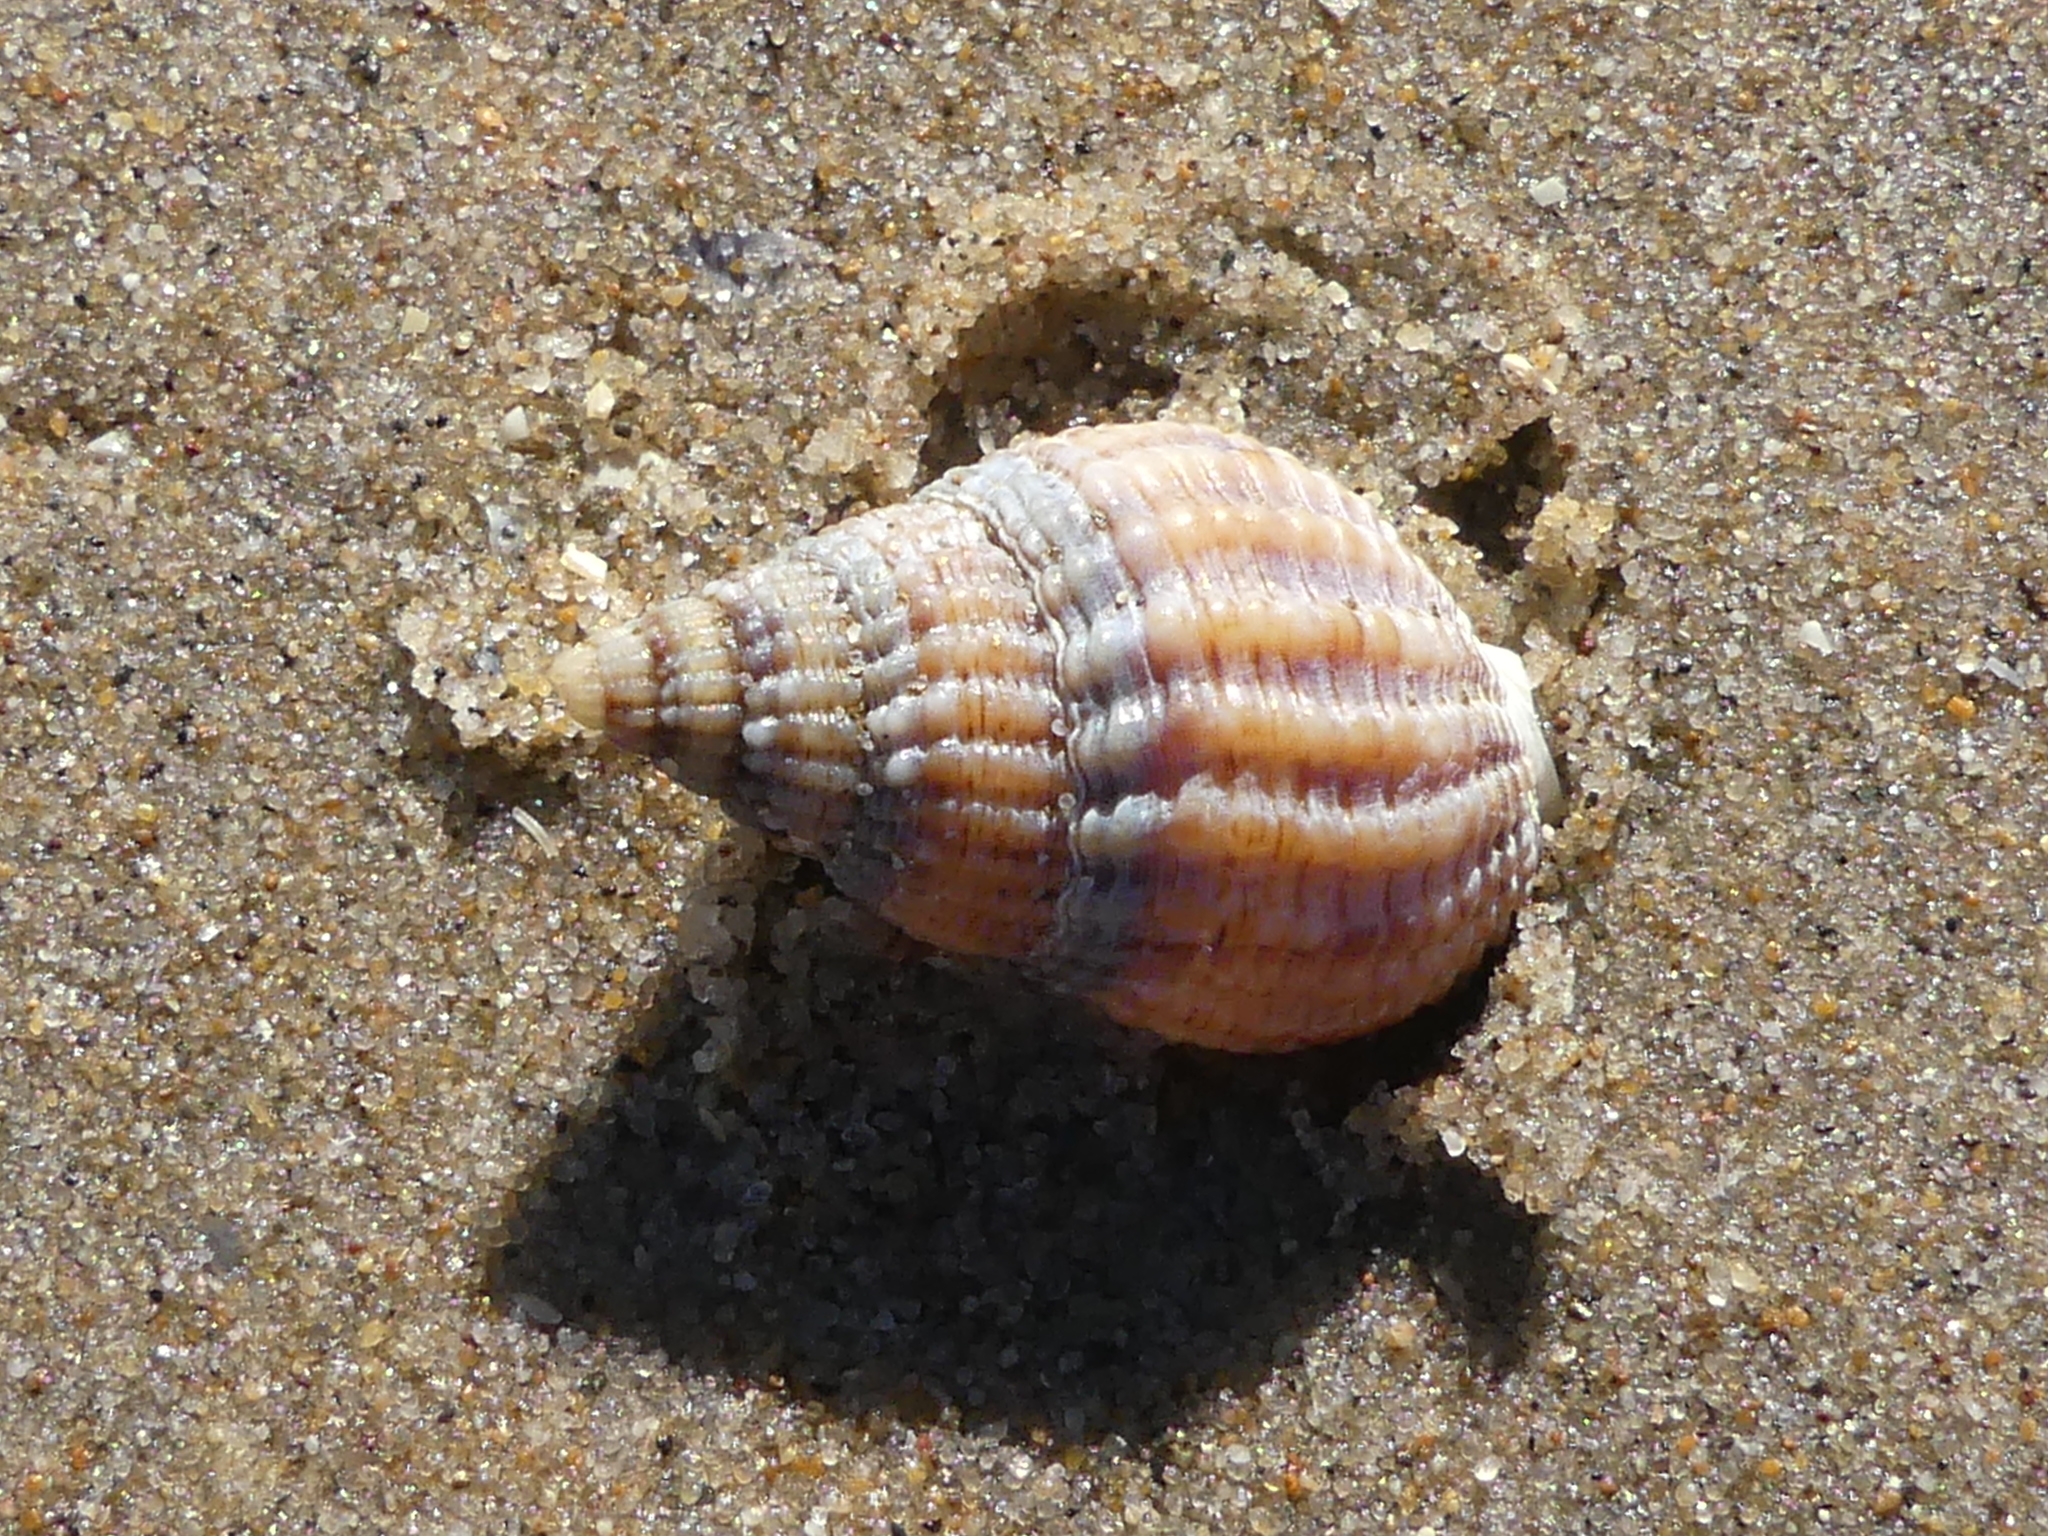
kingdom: Animalia
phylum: Mollusca
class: Gastropoda
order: Neogastropoda
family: Nassariidae
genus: Tritia
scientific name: Tritia reticulata
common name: Netted dog whelk
